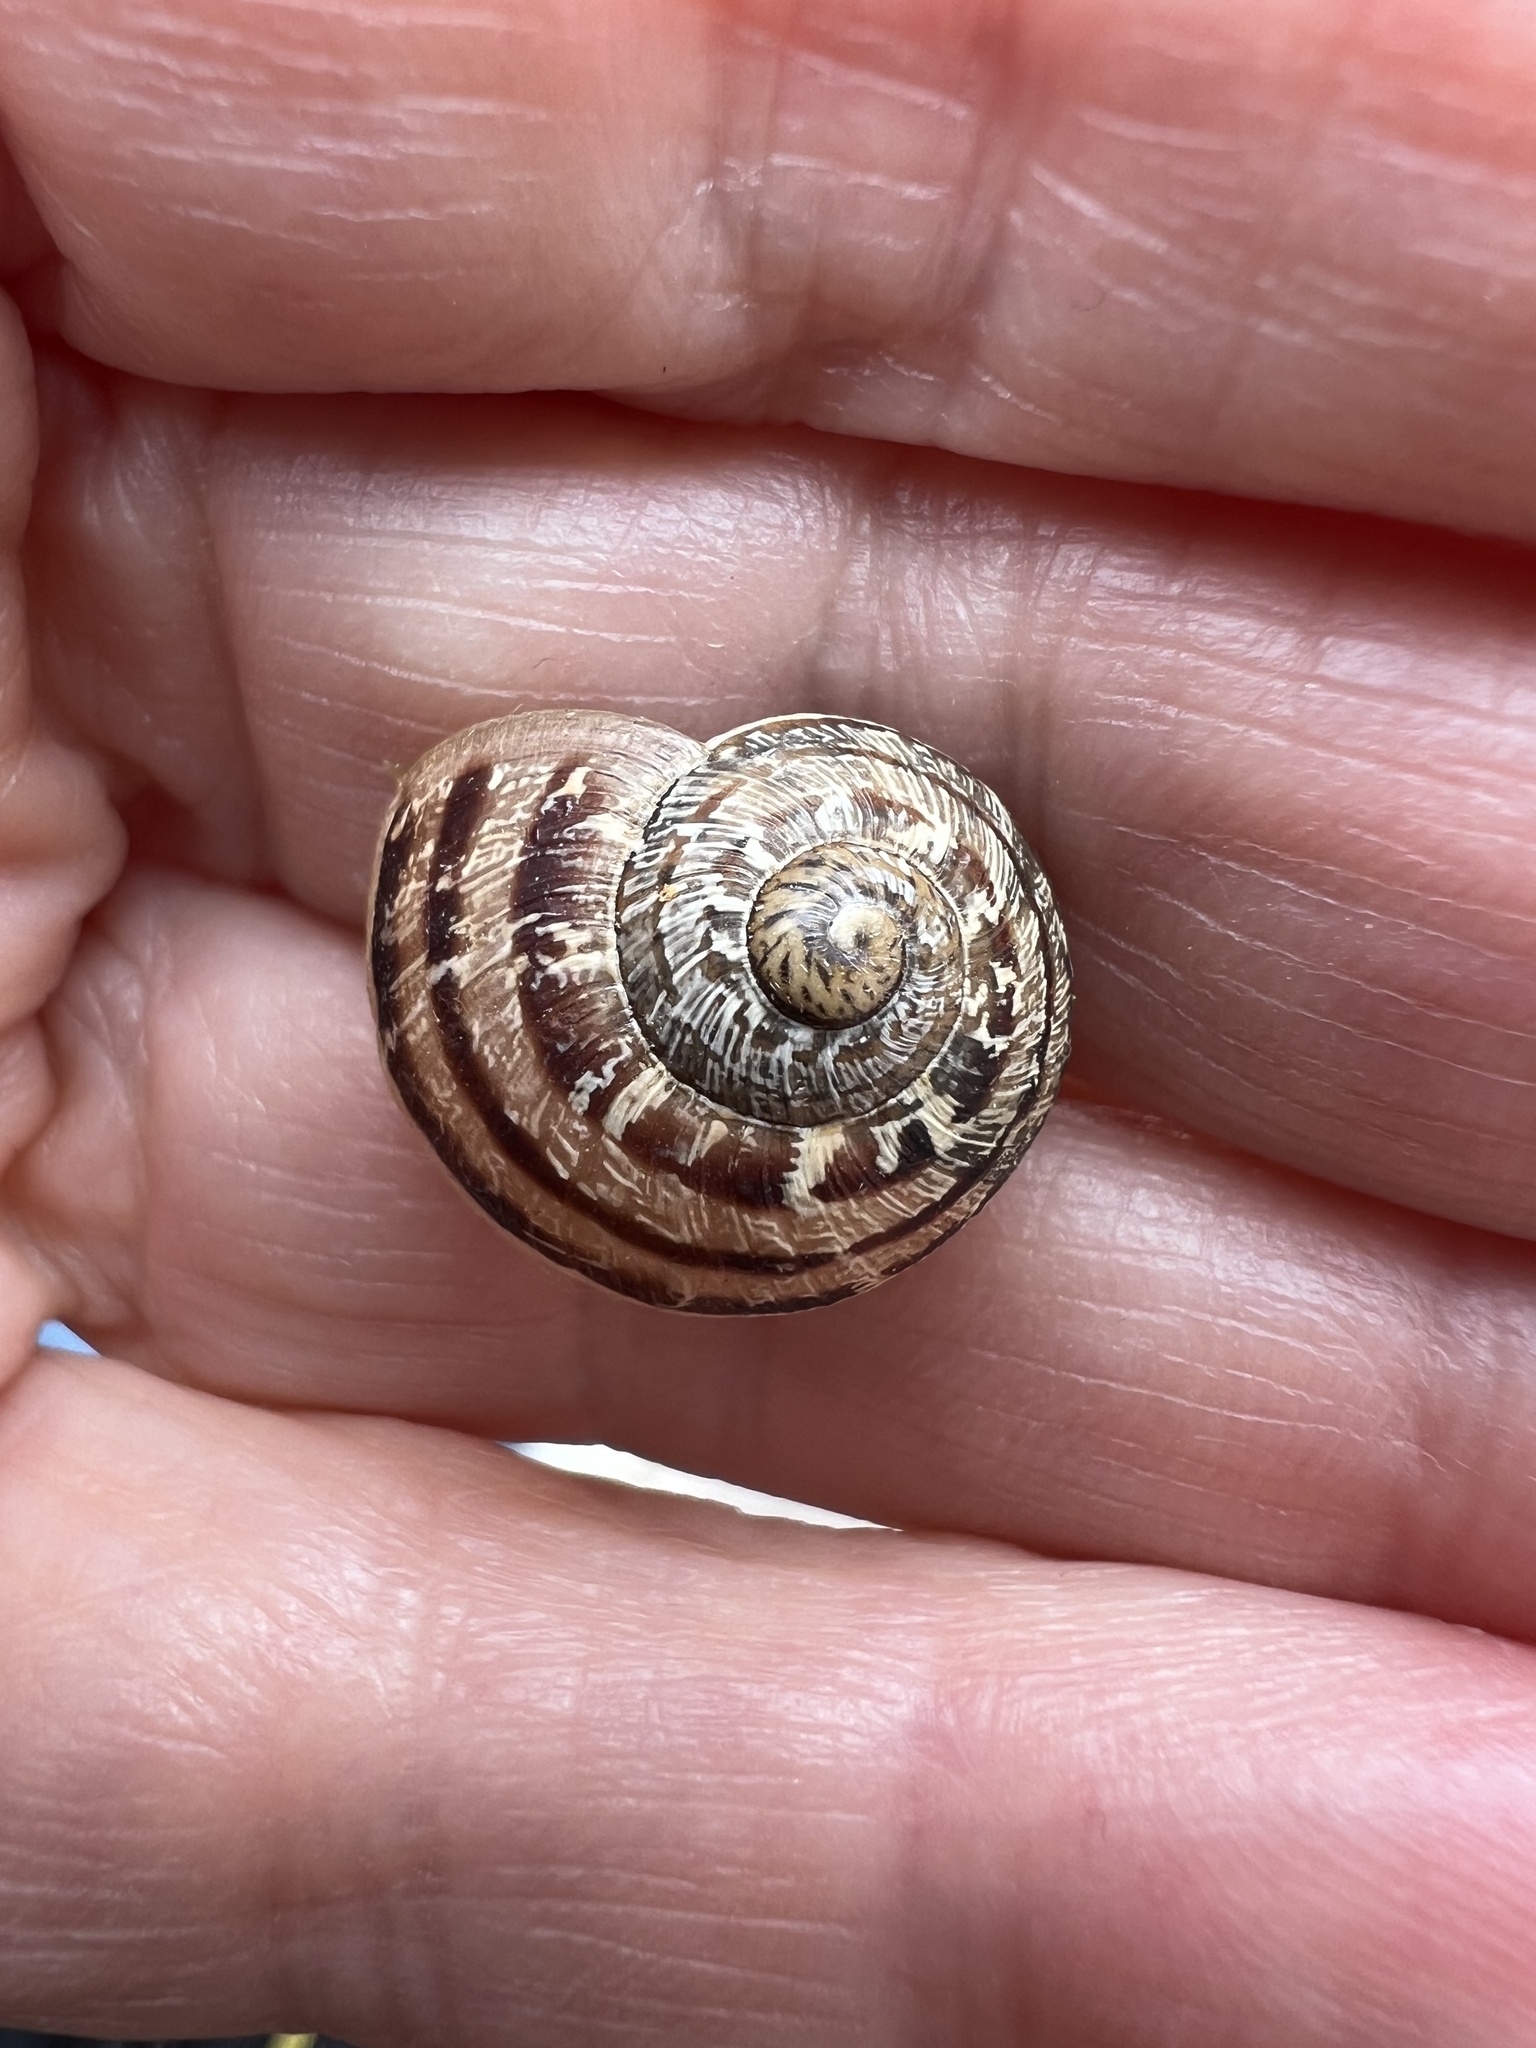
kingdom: Animalia
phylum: Mollusca
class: Gastropoda
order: Stylommatophora
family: Helicidae
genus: Cornu
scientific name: Cornu aspersum
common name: Brown garden snail
